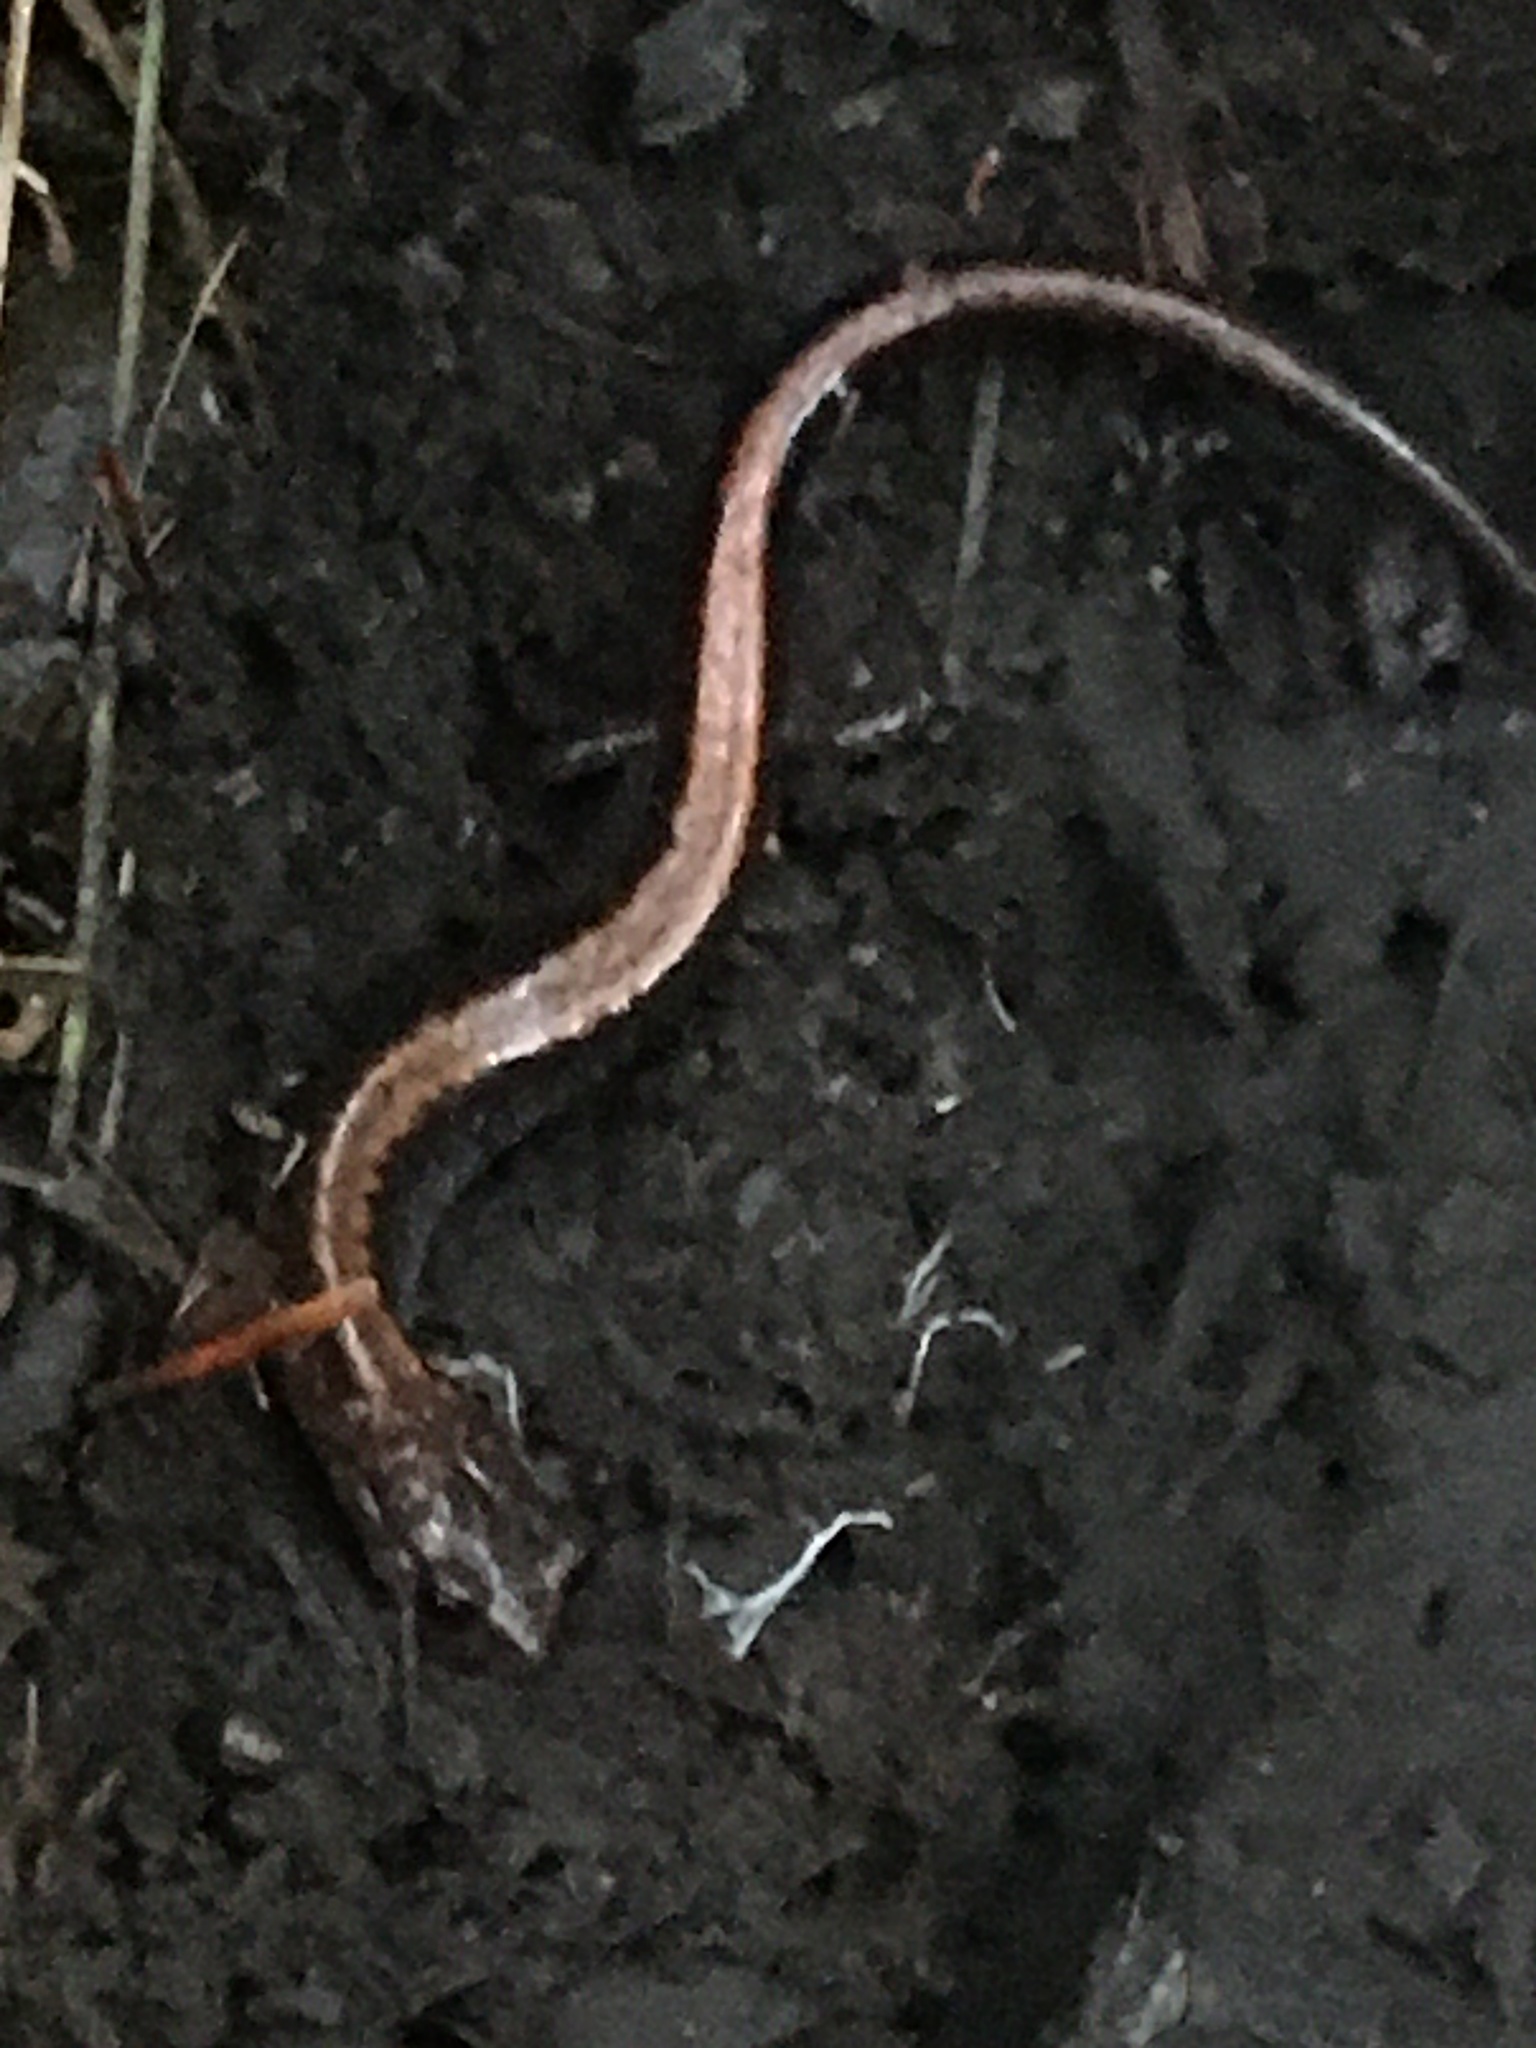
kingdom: Animalia
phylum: Chordata
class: Amphibia
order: Caudata
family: Plethodontidae
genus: Plethodon
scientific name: Plethodon cinereus
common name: Redback salamander
